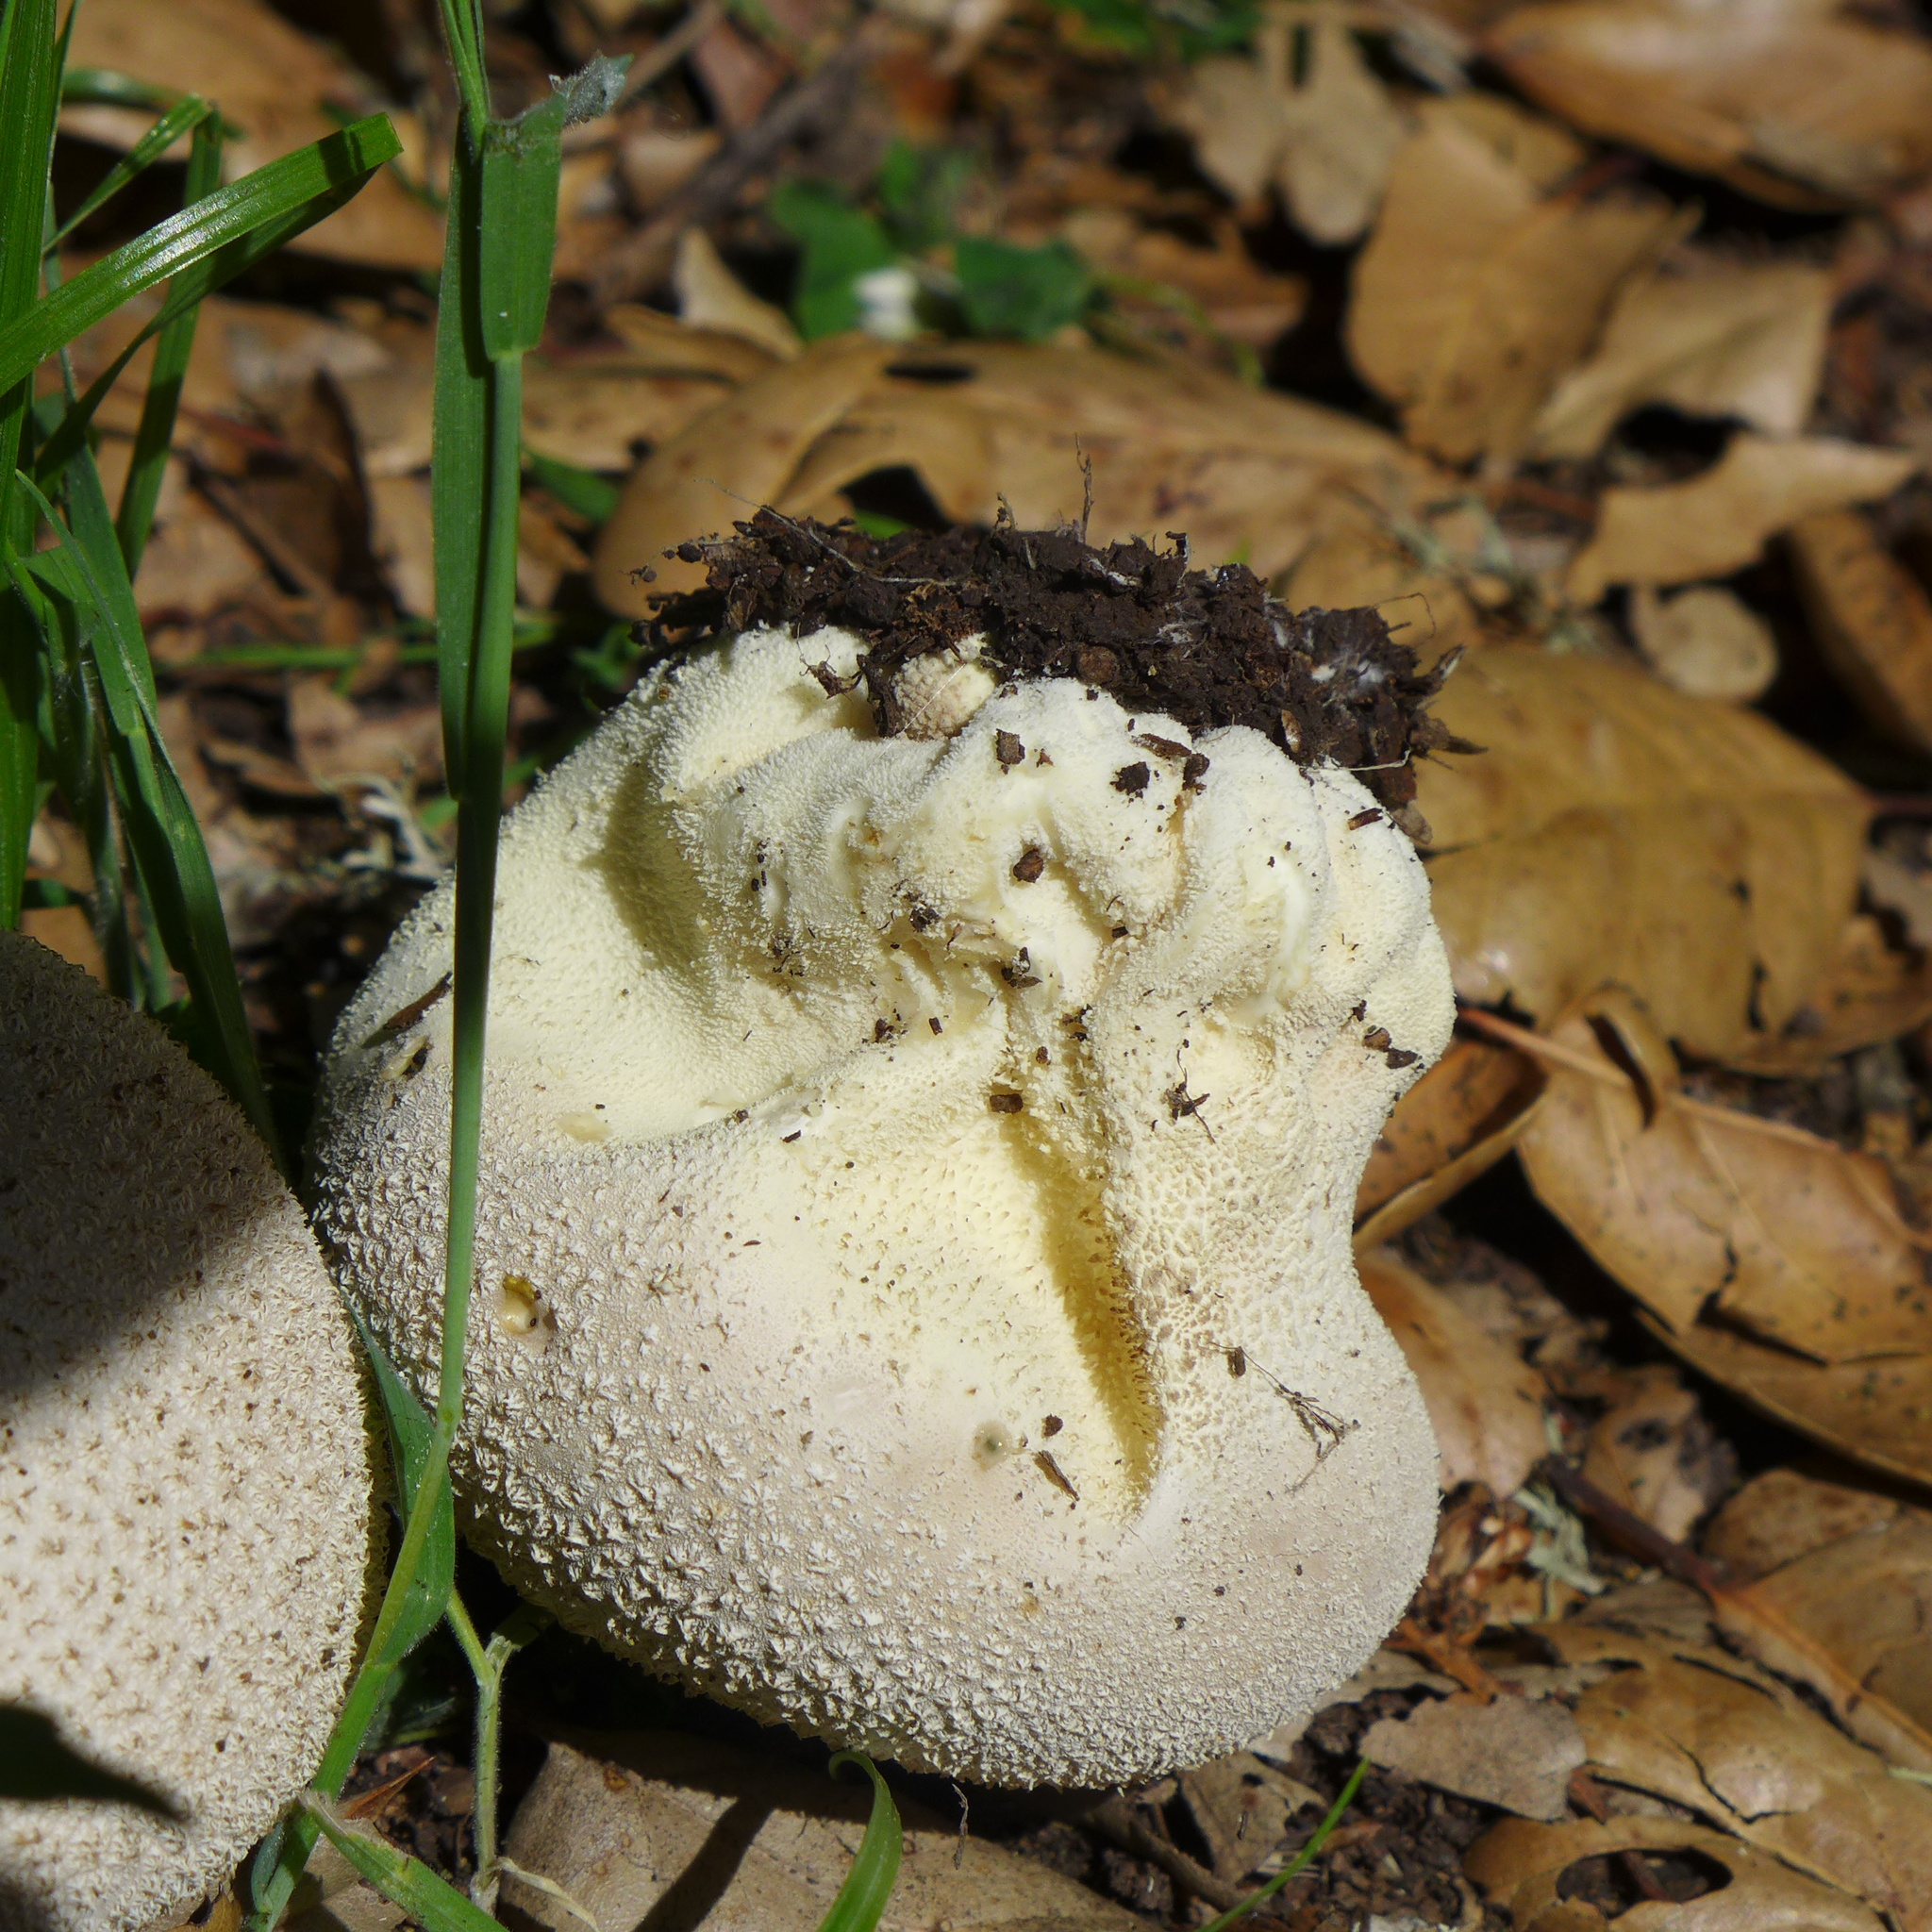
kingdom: Fungi
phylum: Basidiomycota
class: Agaricomycetes
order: Agaricales
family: Lycoperdaceae
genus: Lycoperdon
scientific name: Lycoperdon perlatum
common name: Common puffball
